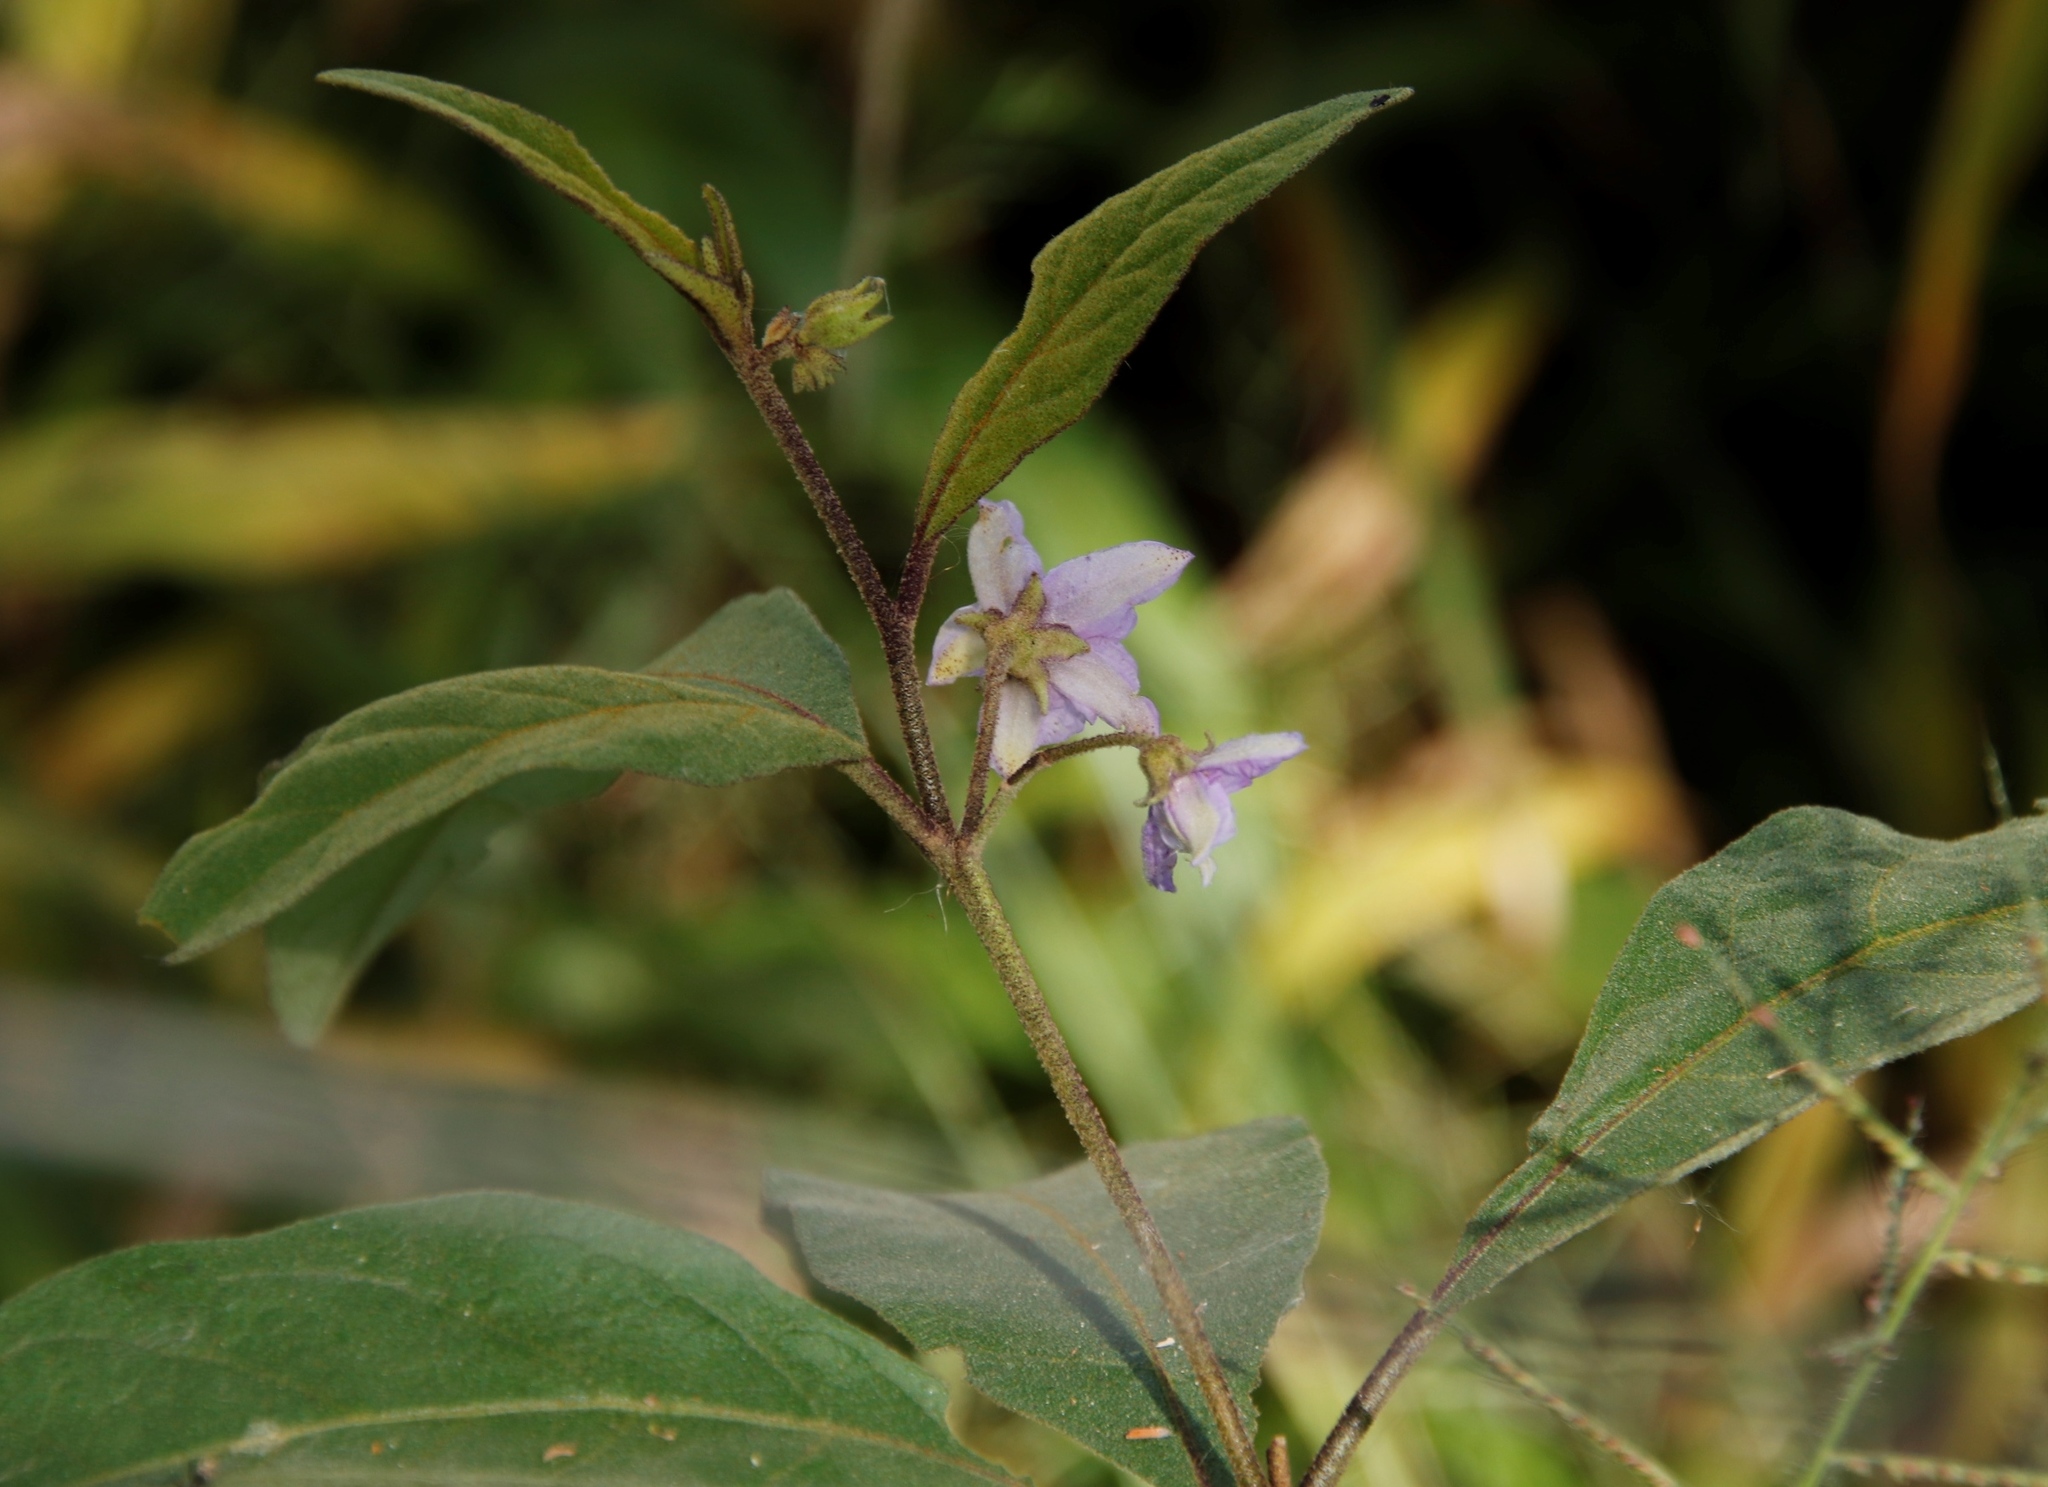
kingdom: Plantae
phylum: Tracheophyta
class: Magnoliopsida
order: Solanales
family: Solanaceae
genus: Solanum
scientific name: Solanum campylacanthum
